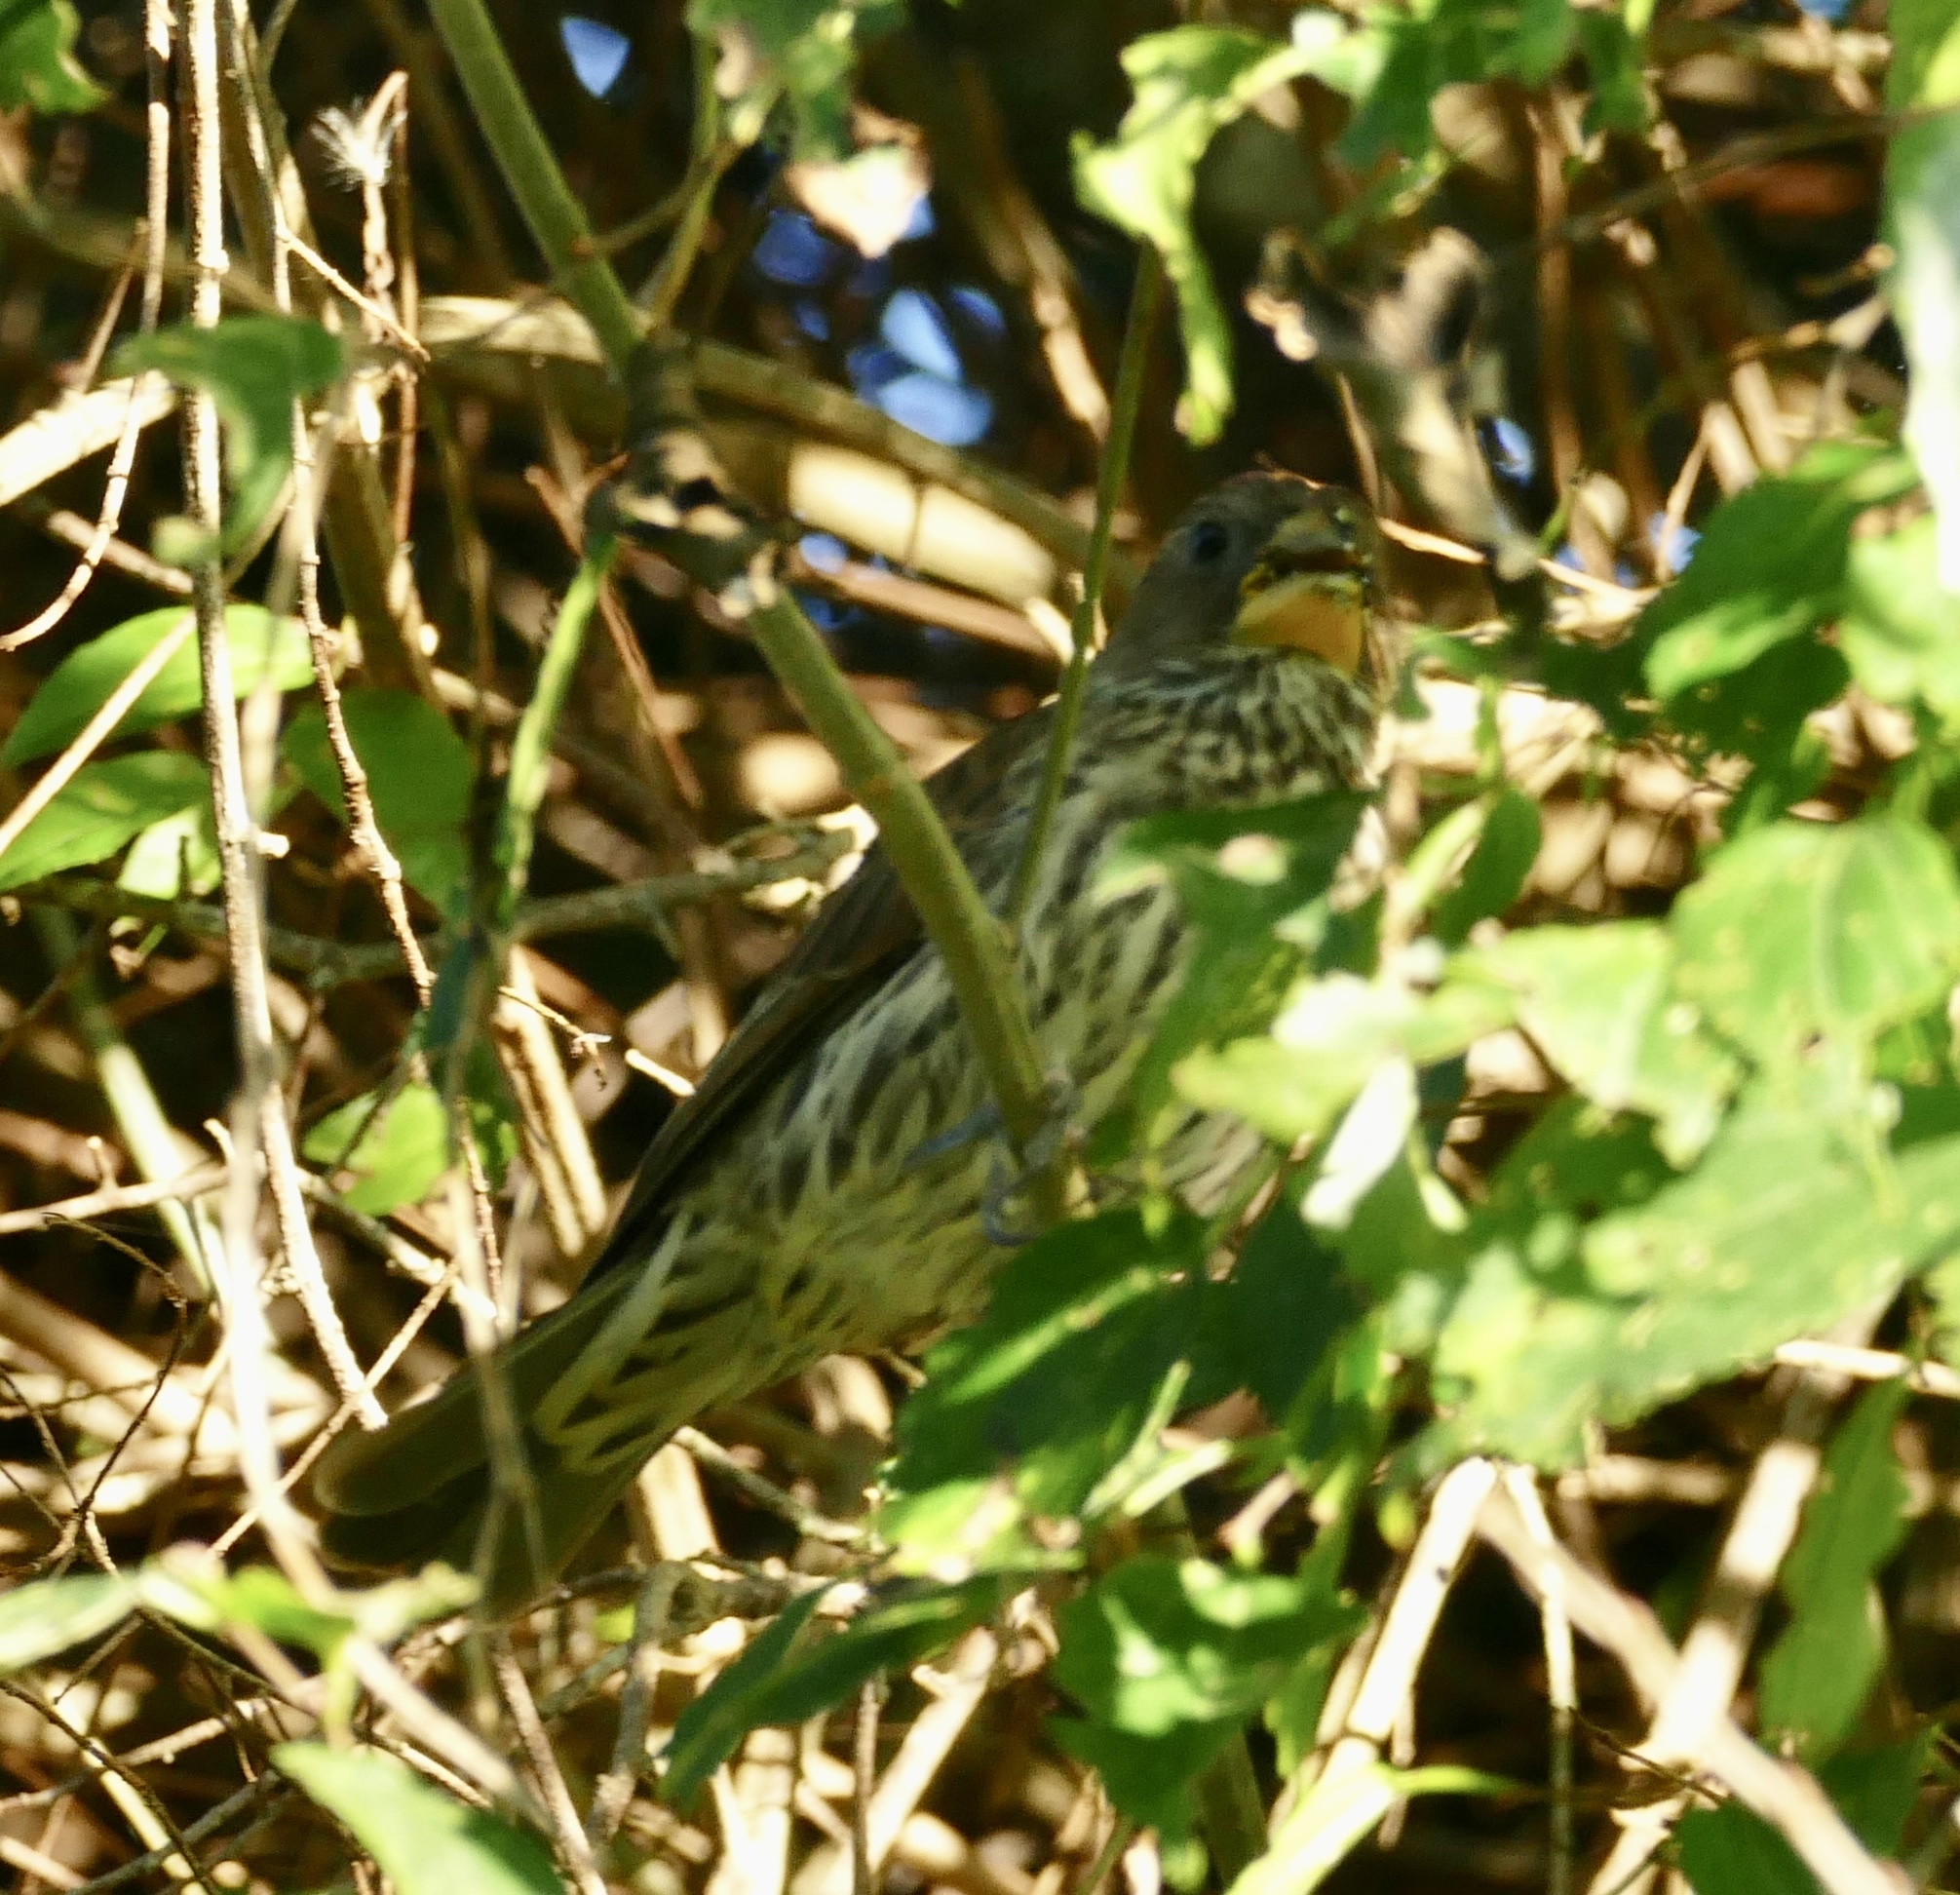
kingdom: Animalia
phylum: Chordata
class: Aves
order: Passeriformes
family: Ploceidae
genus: Amblyospiza
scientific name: Amblyospiza albifrons
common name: Thick-billed weaver
